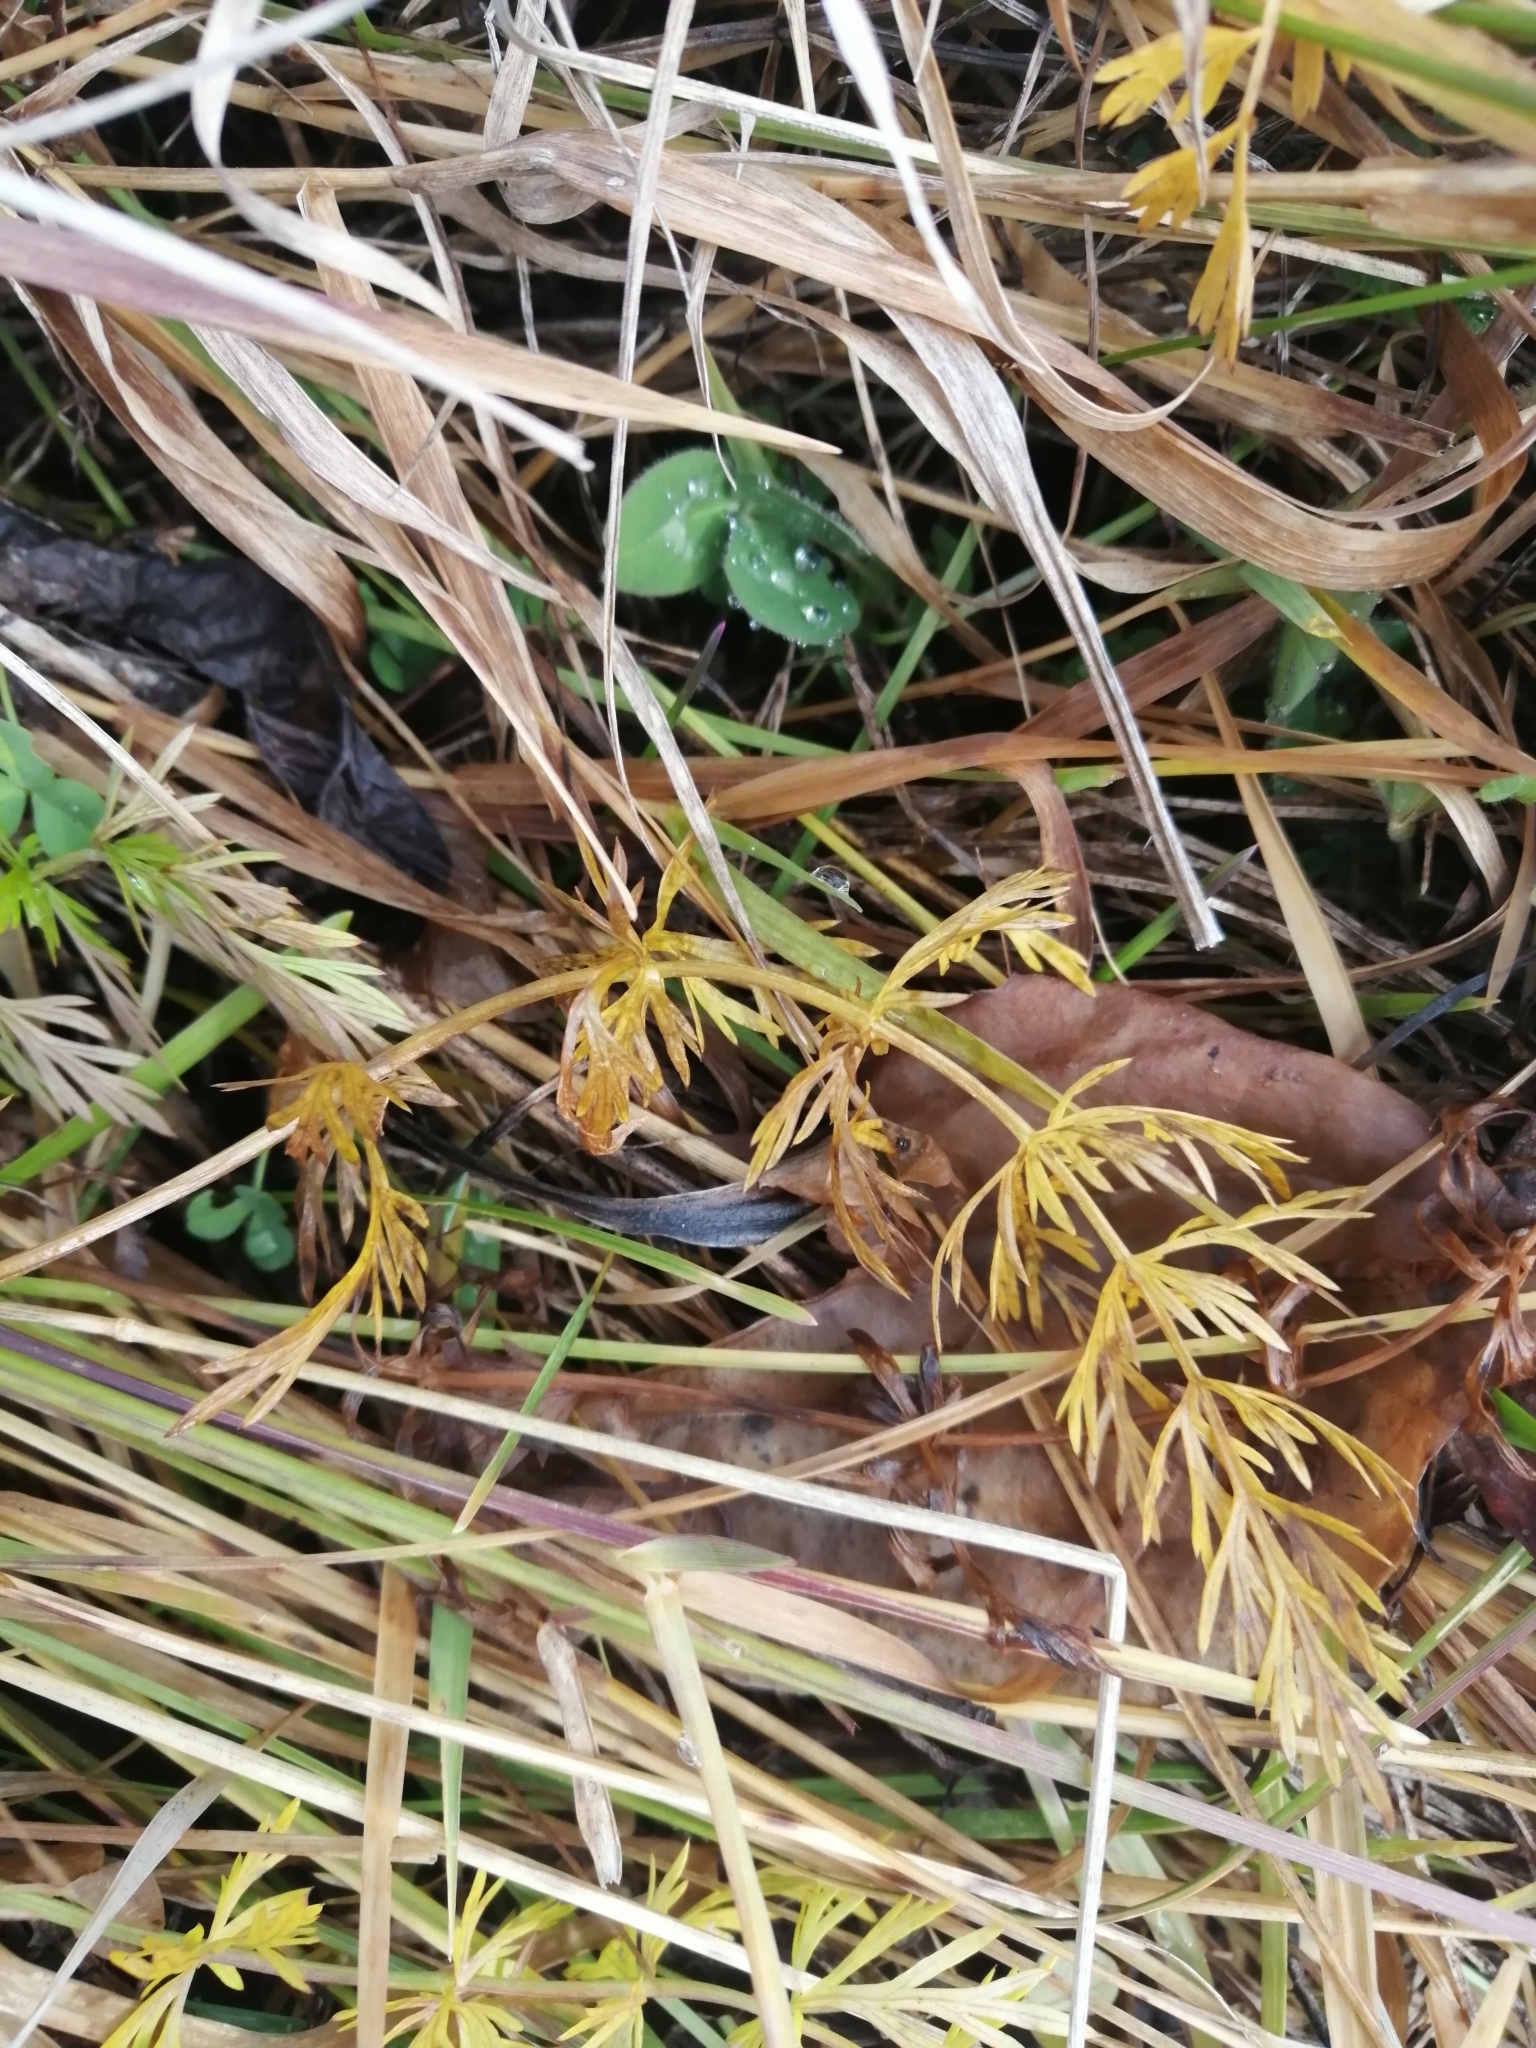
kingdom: Plantae
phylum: Tracheophyta
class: Magnoliopsida
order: Apiales
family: Apiaceae
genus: Carum
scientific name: Carum carvi
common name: Caraway
